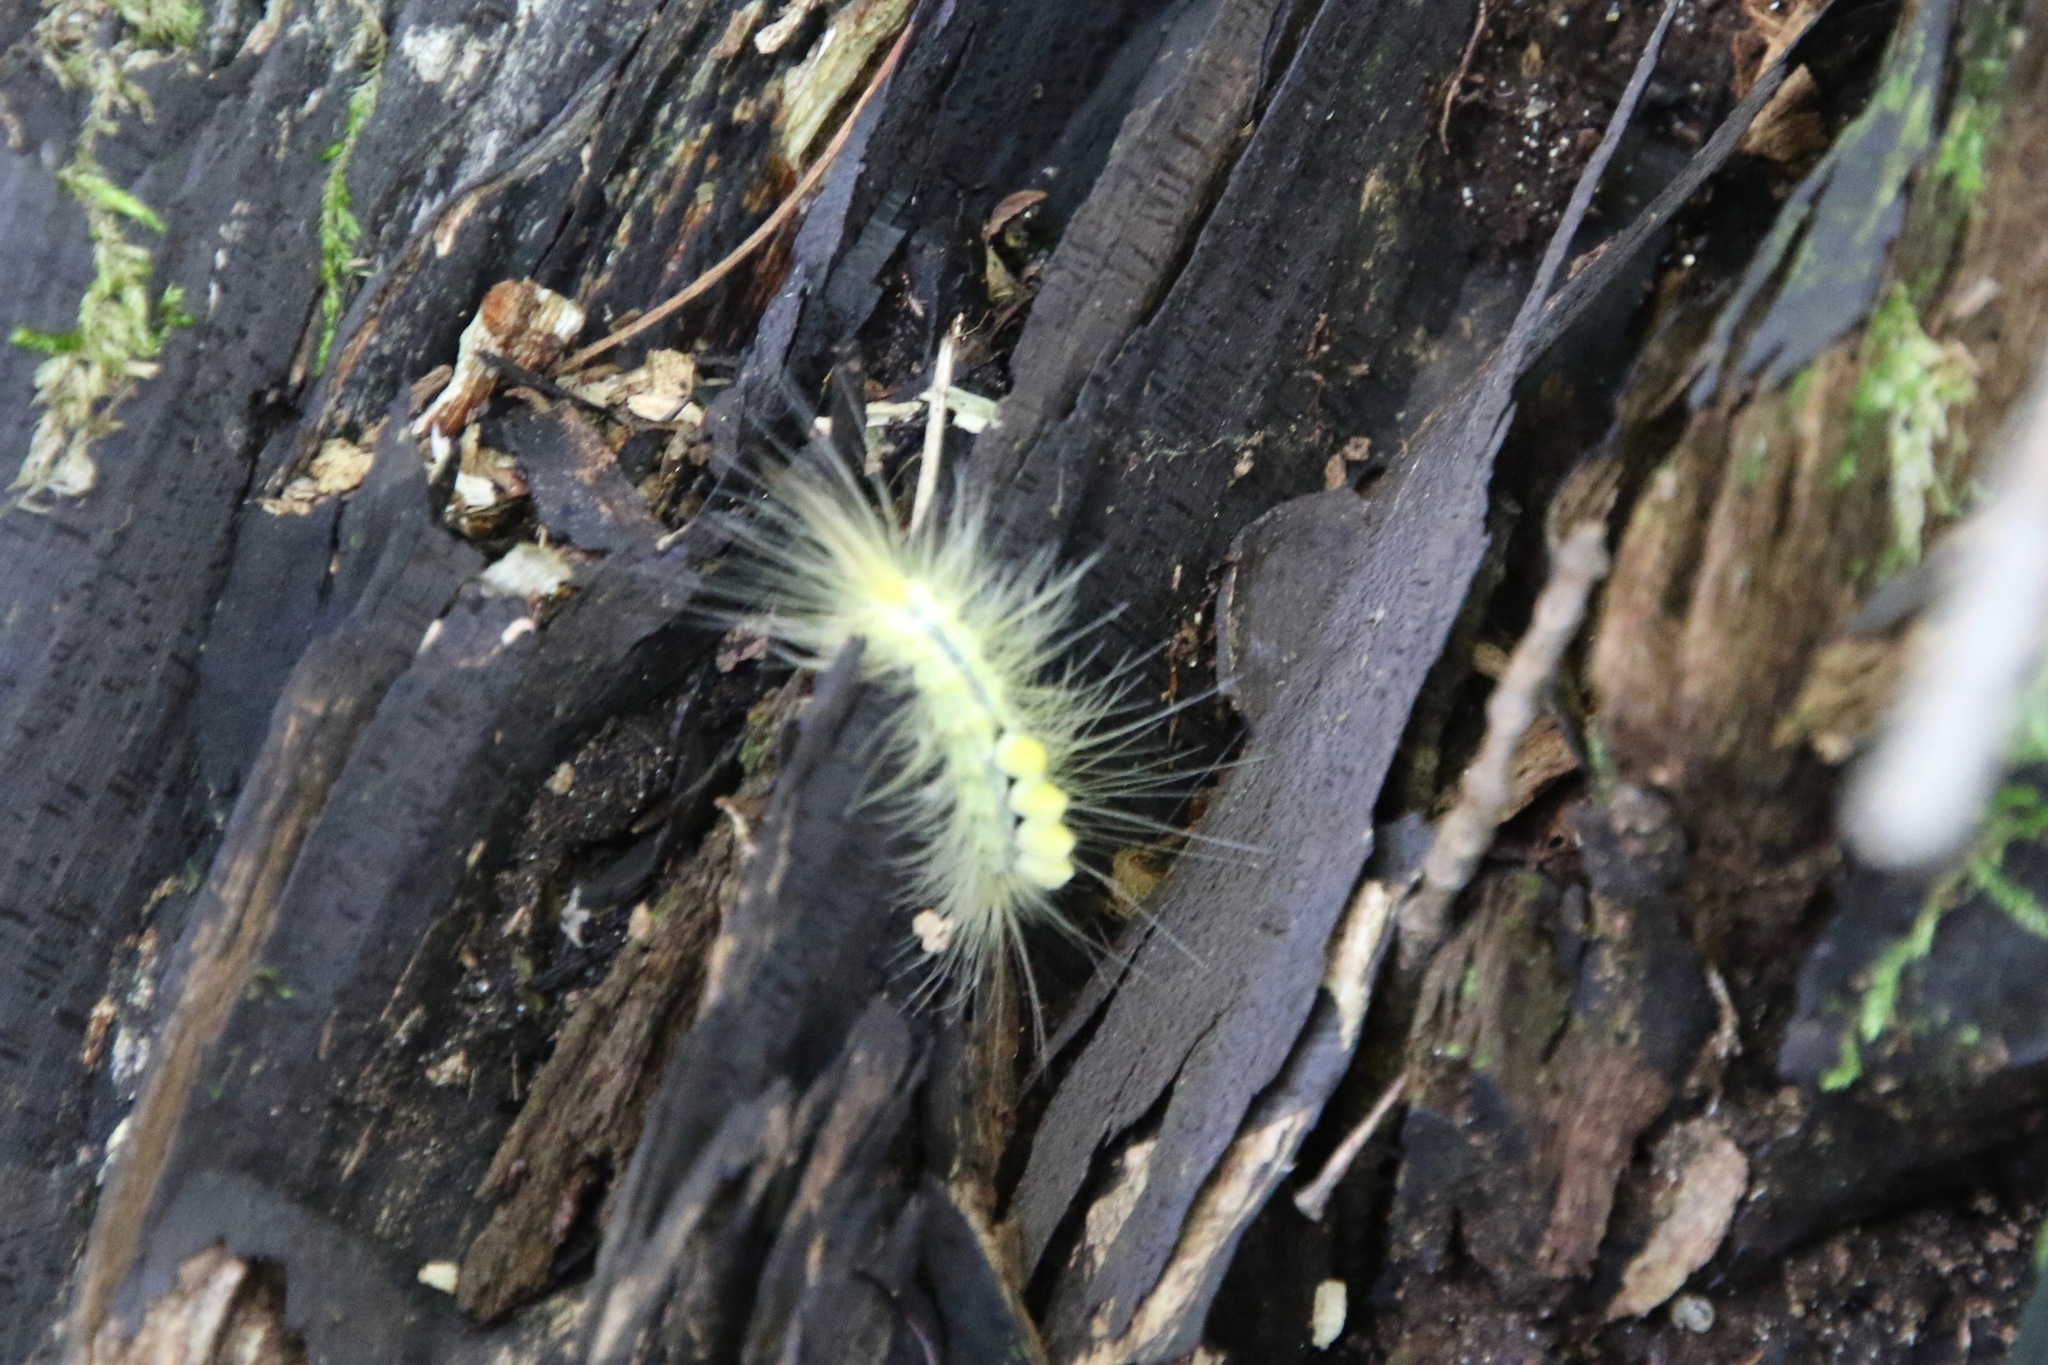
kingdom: Animalia
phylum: Arthropoda
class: Insecta
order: Lepidoptera
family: Erebidae
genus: Orgyia
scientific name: Orgyia definita
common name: Definite tussock moth
